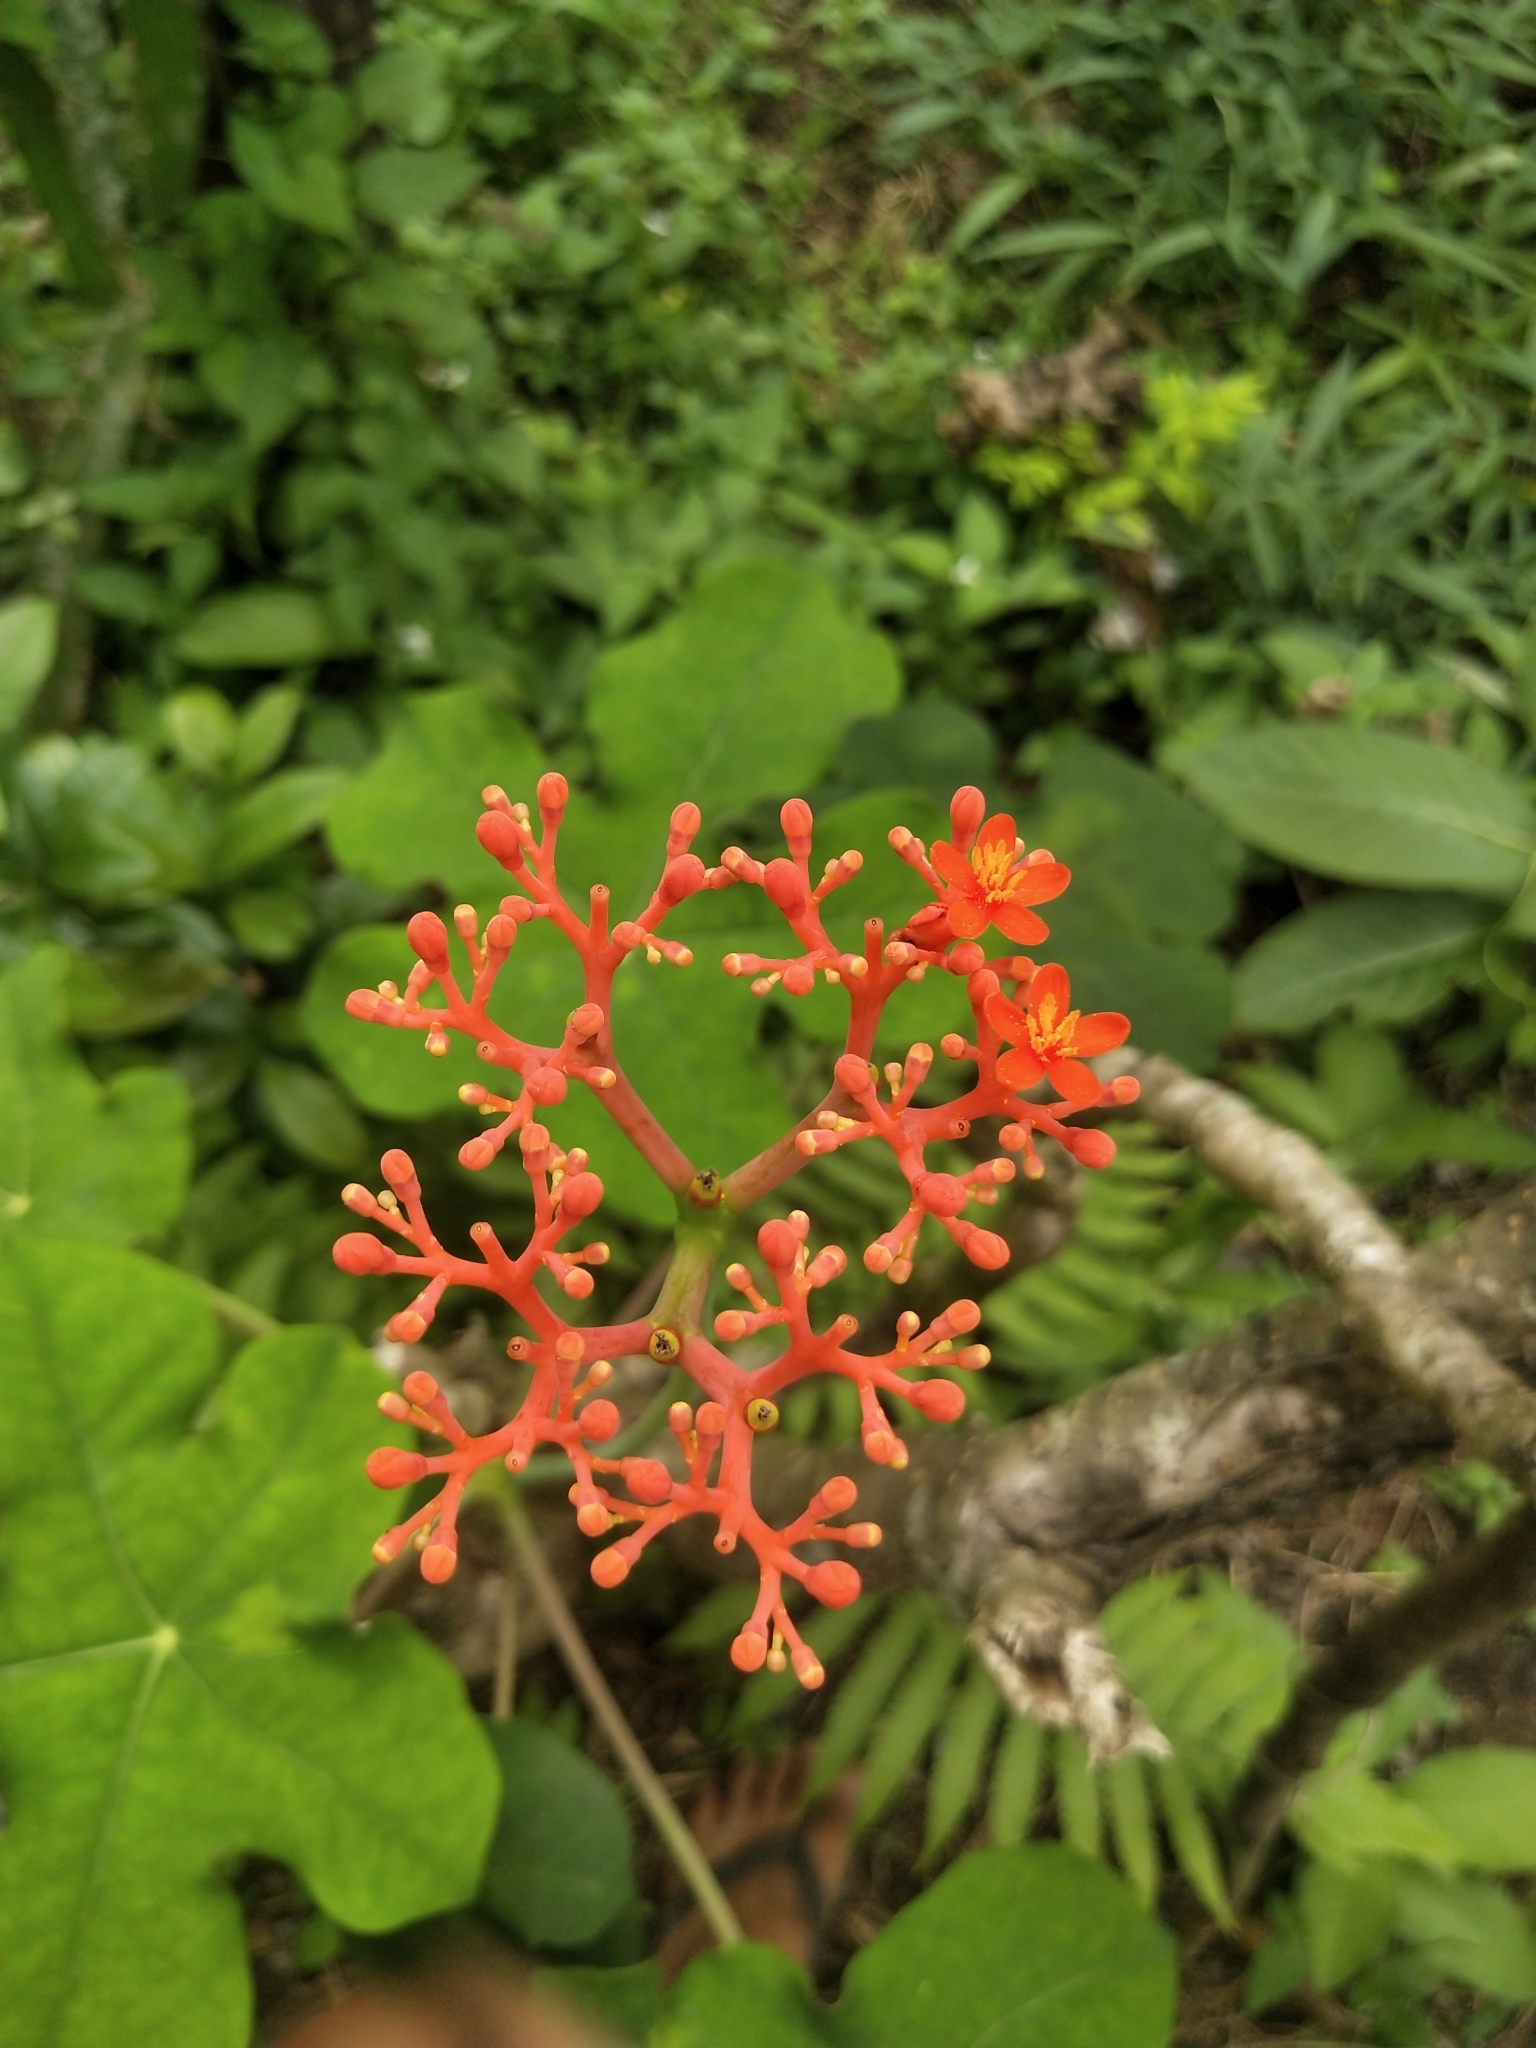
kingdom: Plantae
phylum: Tracheophyta
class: Magnoliopsida
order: Malpighiales
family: Euphorbiaceae
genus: Jatropha
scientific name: Jatropha podagrica
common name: Gout stalk
